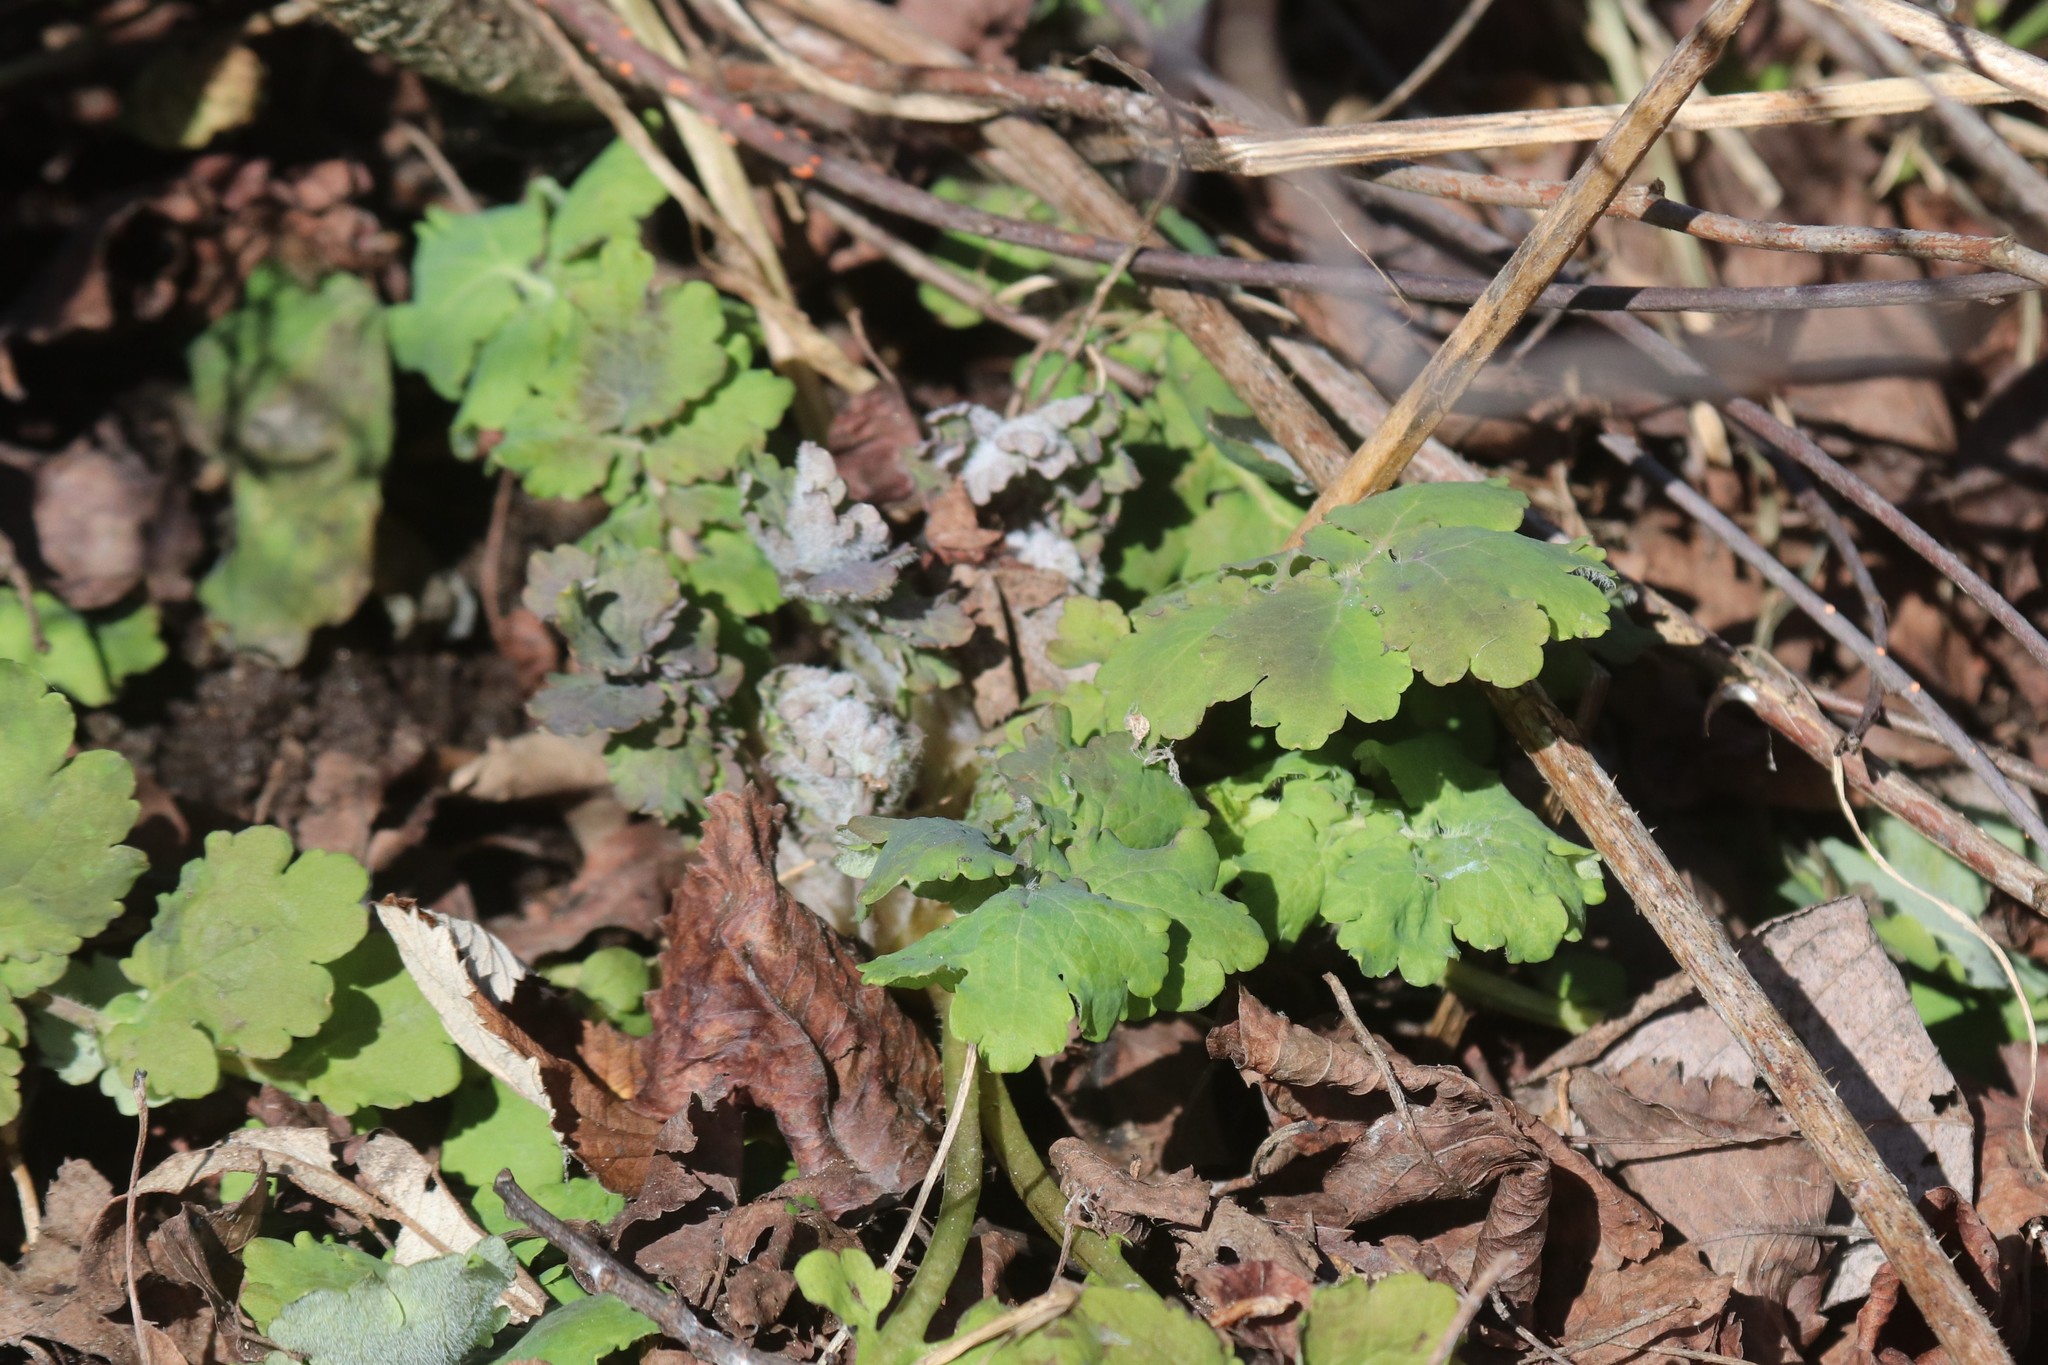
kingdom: Plantae
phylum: Tracheophyta
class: Magnoliopsida
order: Ranunculales
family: Papaveraceae
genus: Chelidonium
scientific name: Chelidonium majus
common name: Greater celandine
